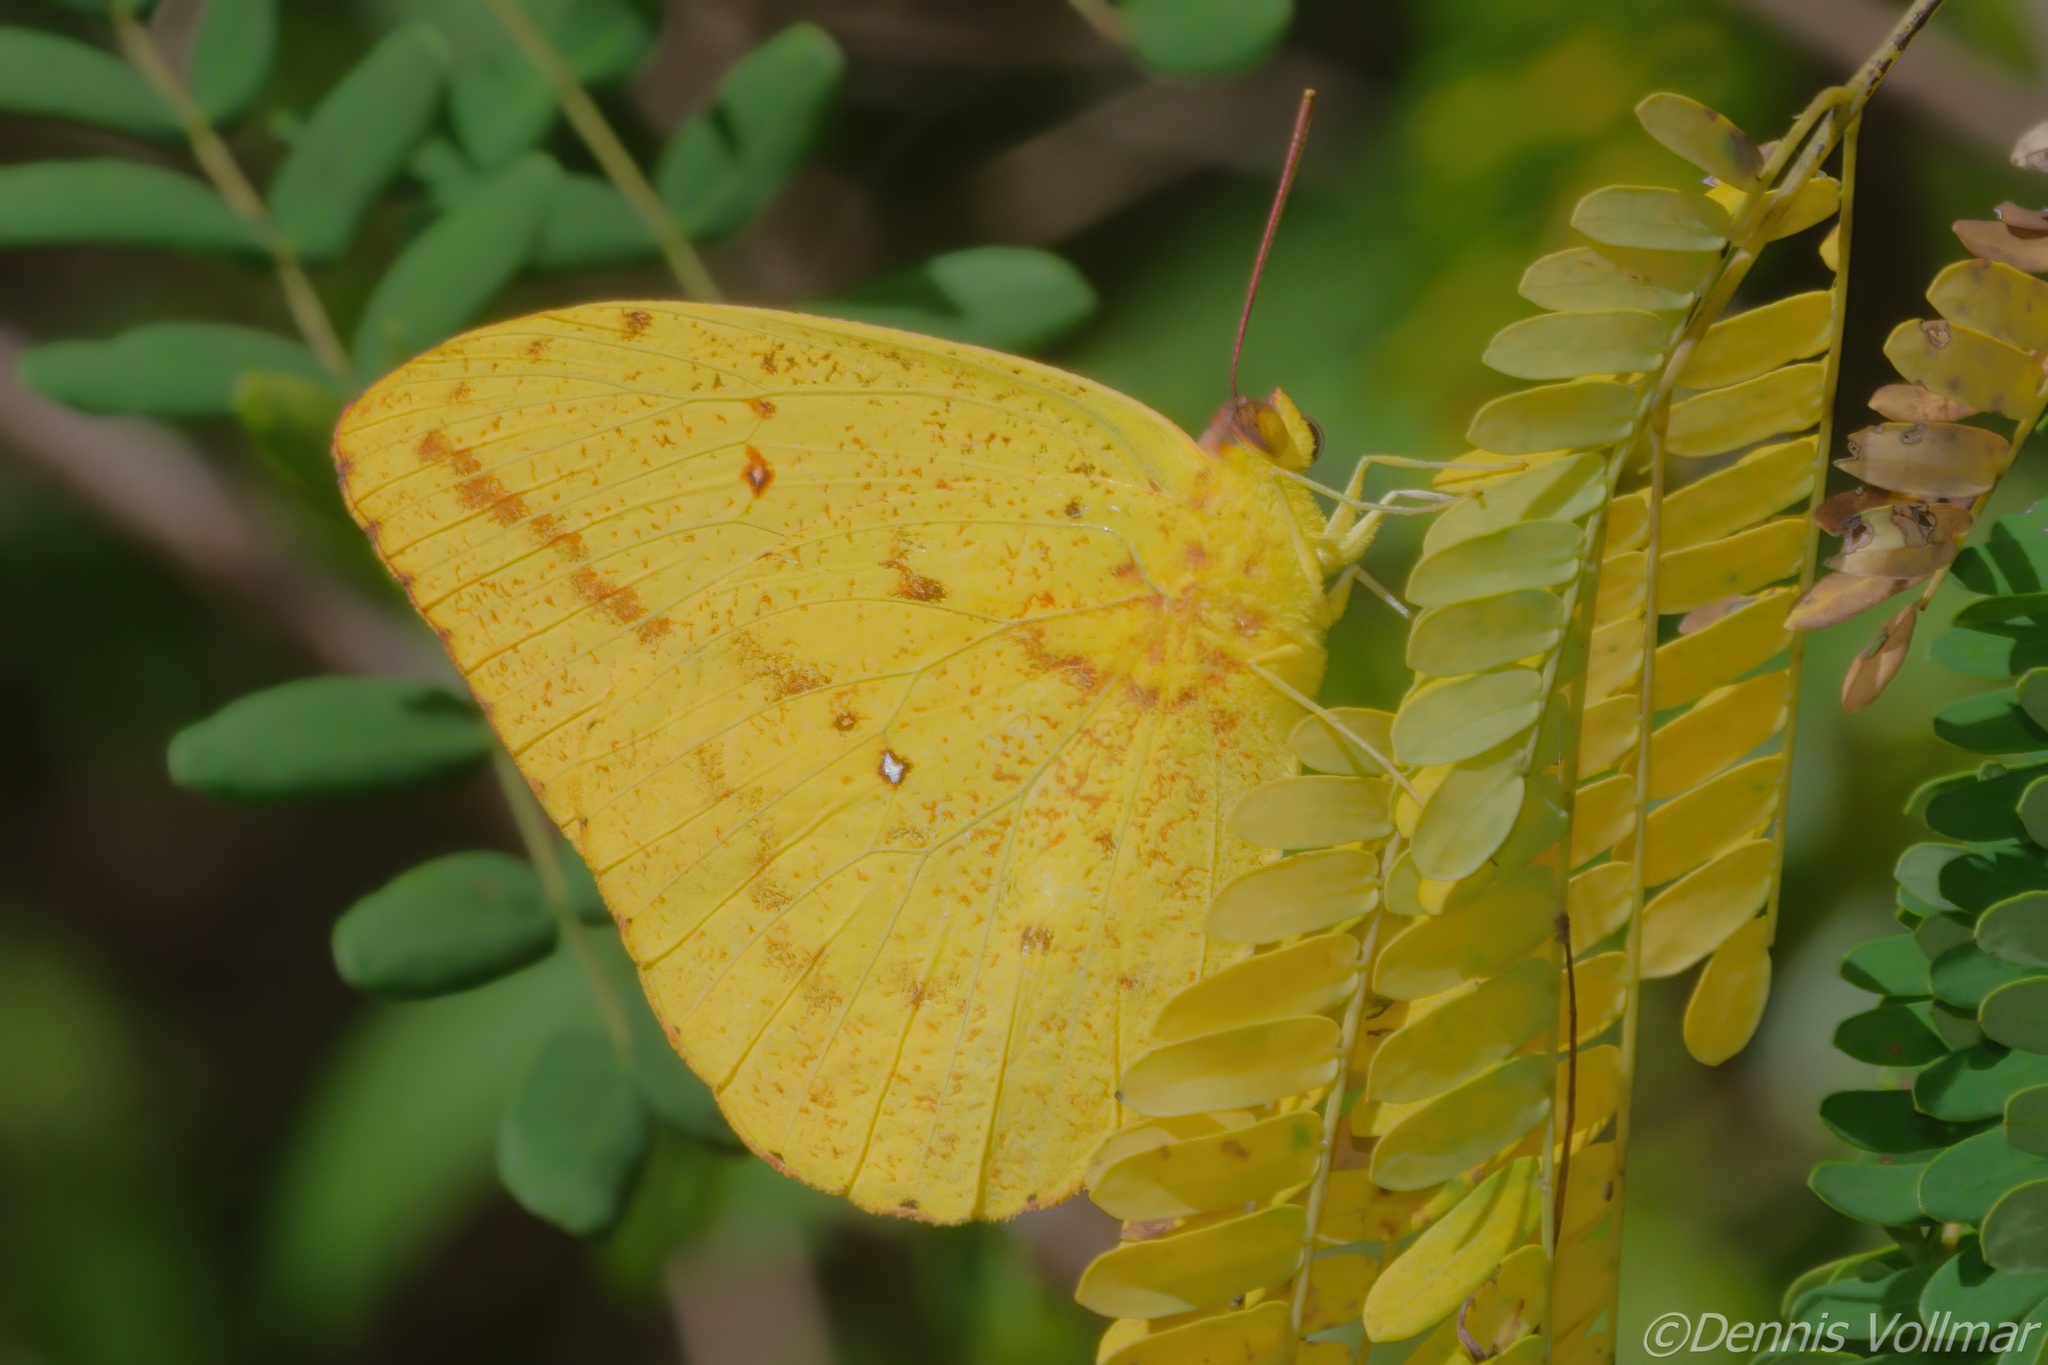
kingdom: Animalia
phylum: Arthropoda
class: Insecta
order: Lepidoptera
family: Pieridae
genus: Phoebis
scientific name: Phoebis agarithe
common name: Large orange sulphur
